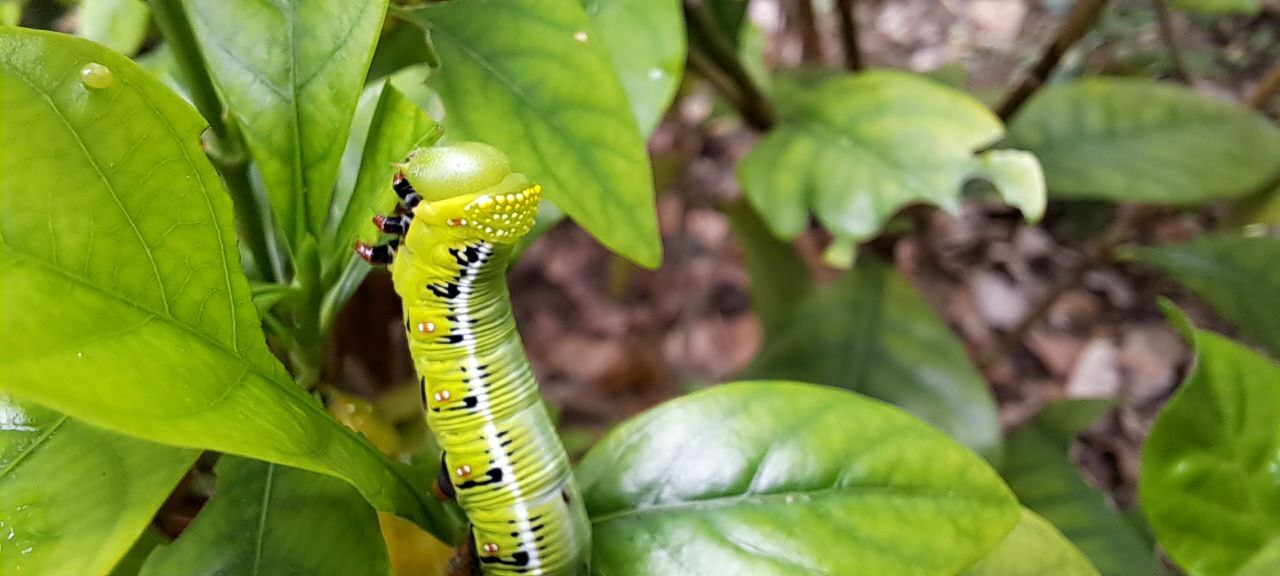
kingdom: Animalia
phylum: Arthropoda
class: Insecta
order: Lepidoptera
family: Sphingidae
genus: Cephonodes
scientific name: Cephonodes hylas
